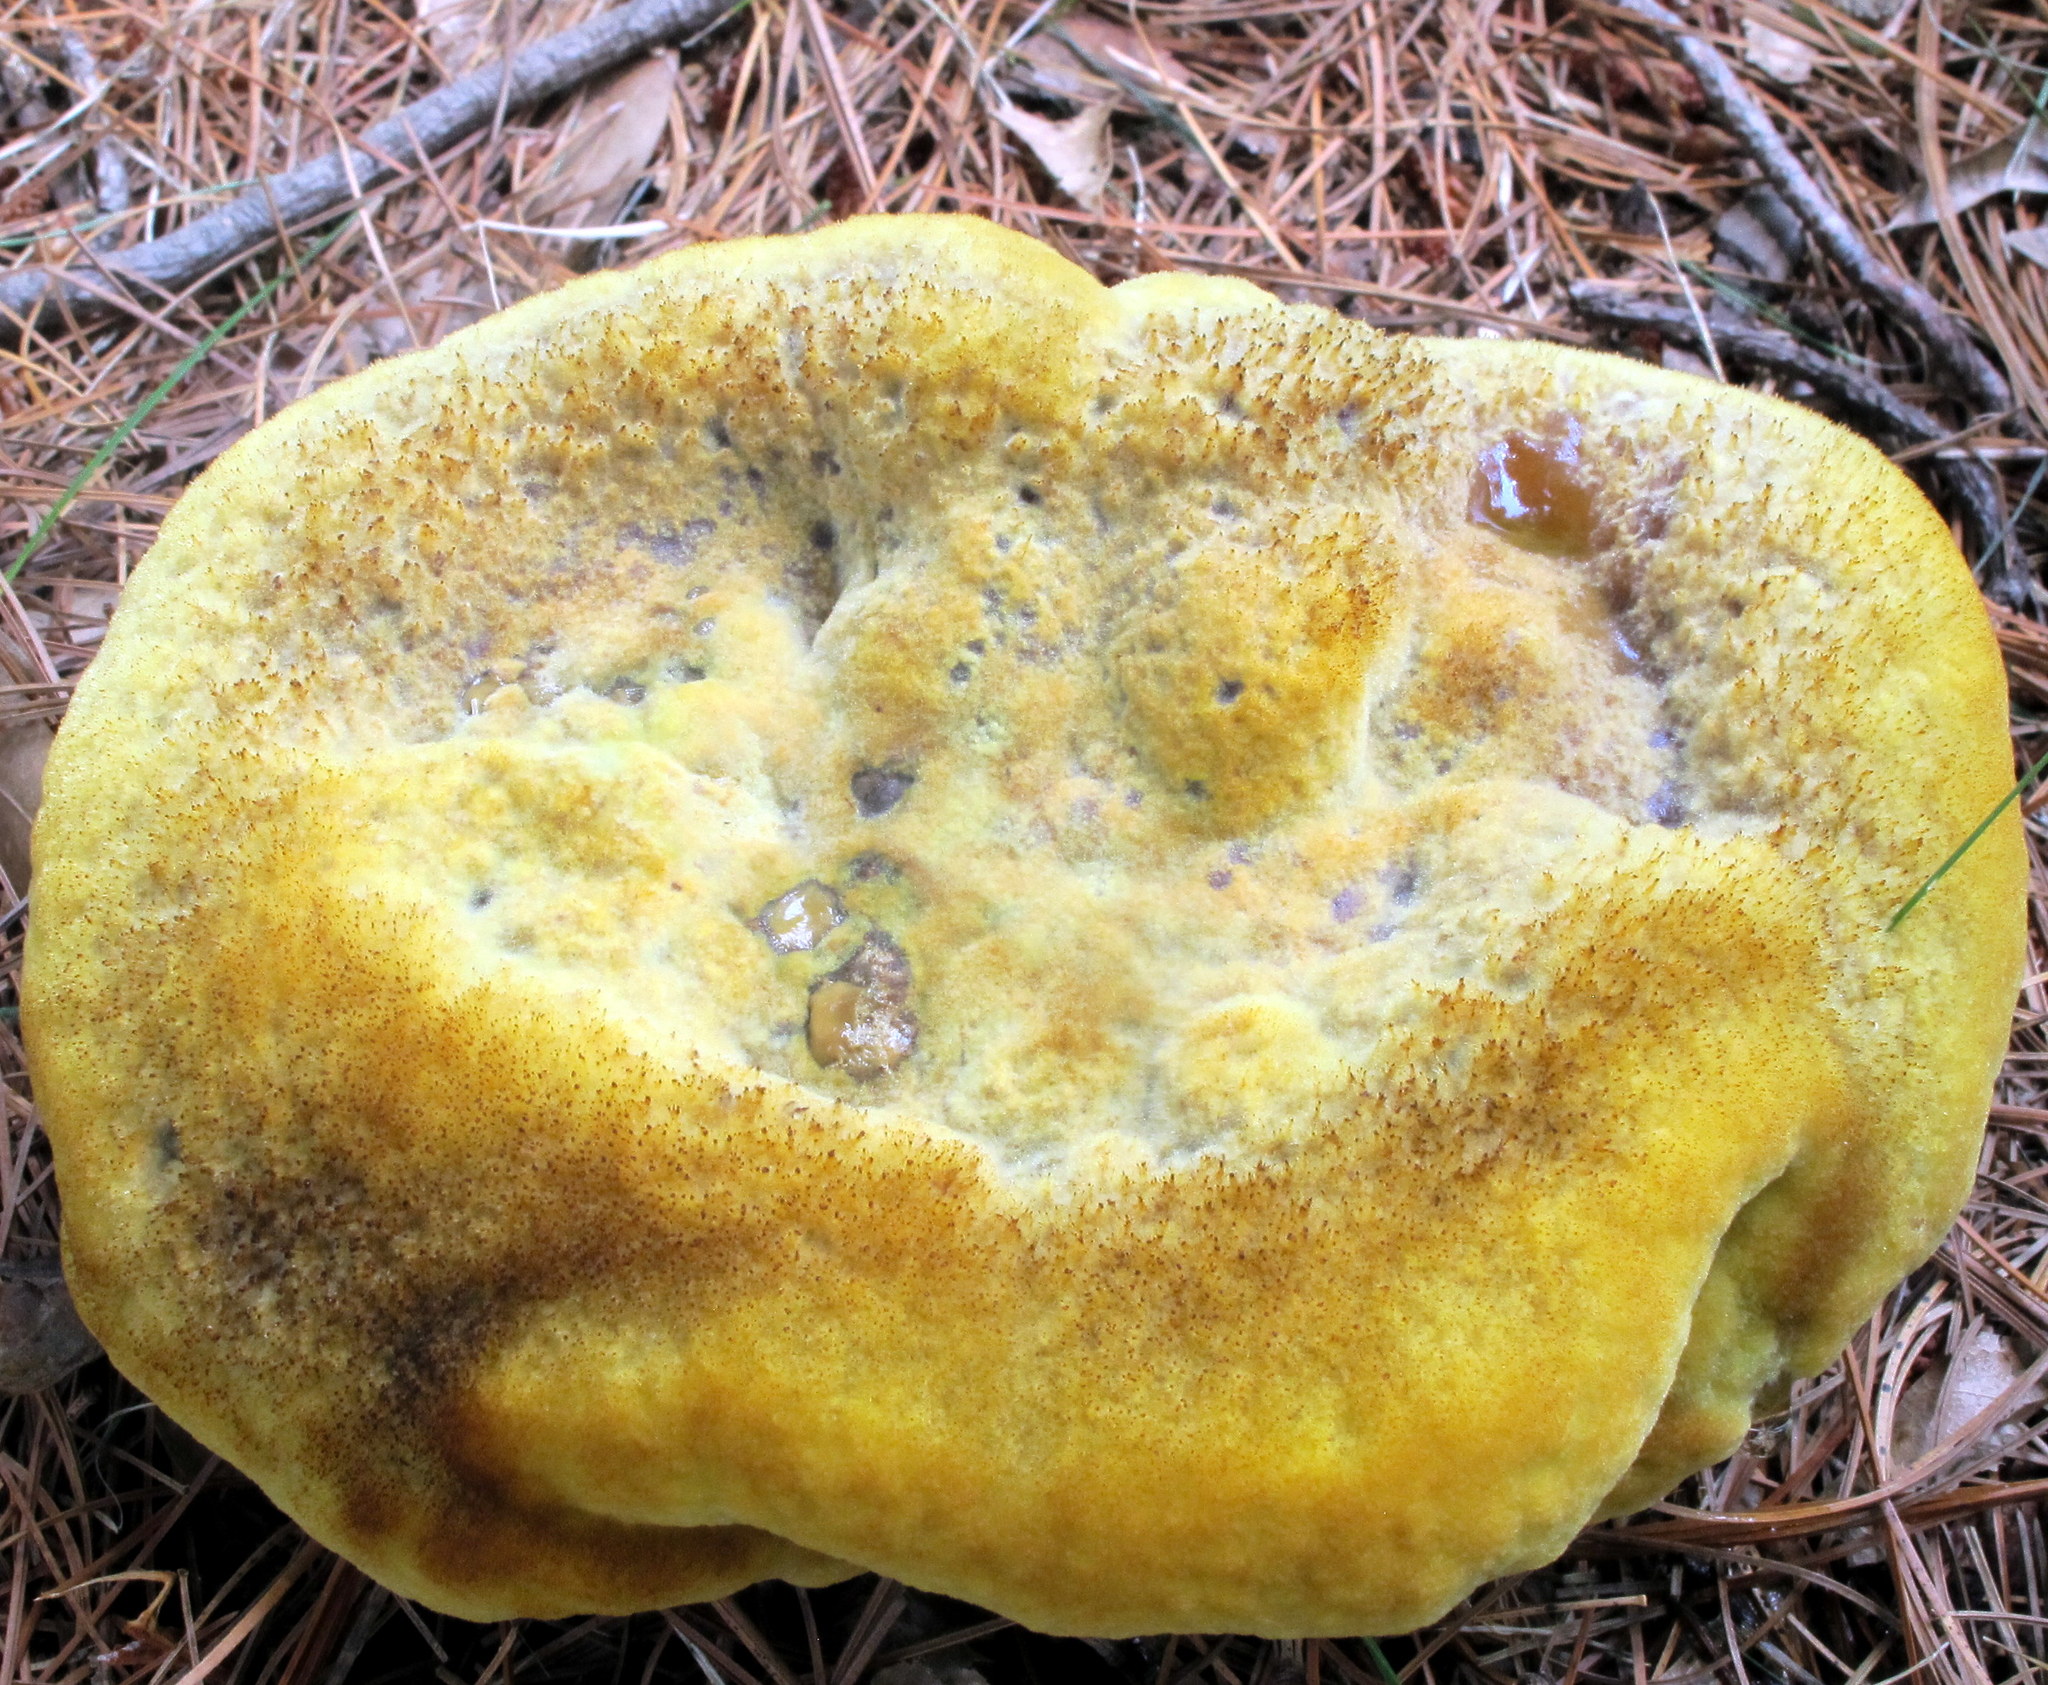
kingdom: Fungi
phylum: Basidiomycota
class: Agaricomycetes
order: Polyporales
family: Laetiporaceae
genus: Phaeolus
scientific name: Phaeolus schweinitzii
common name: Dyer's mazegill
